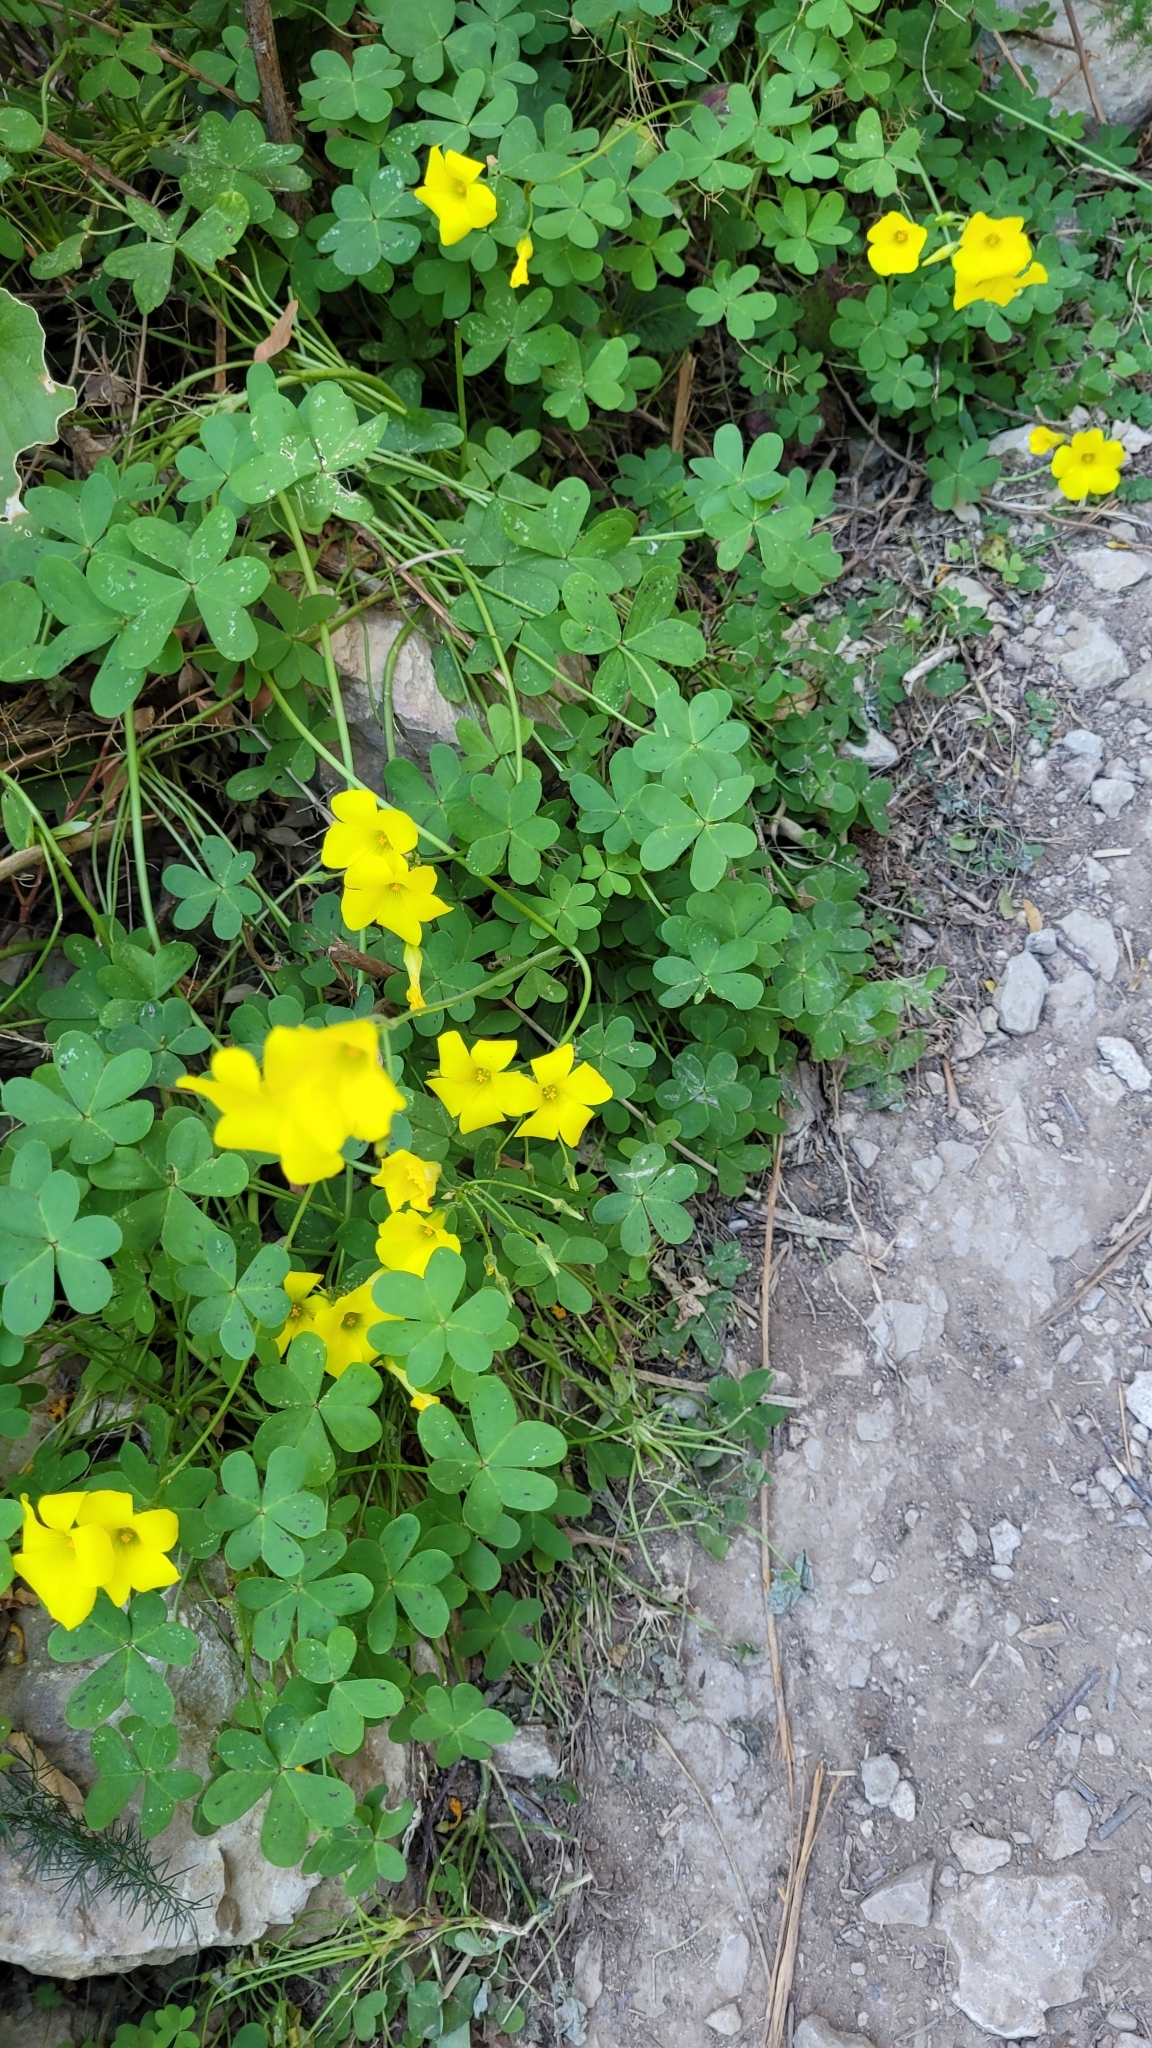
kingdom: Plantae
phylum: Tracheophyta
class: Magnoliopsida
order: Oxalidales
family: Oxalidaceae
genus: Oxalis
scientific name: Oxalis pes-caprae
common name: Bermuda-buttercup
